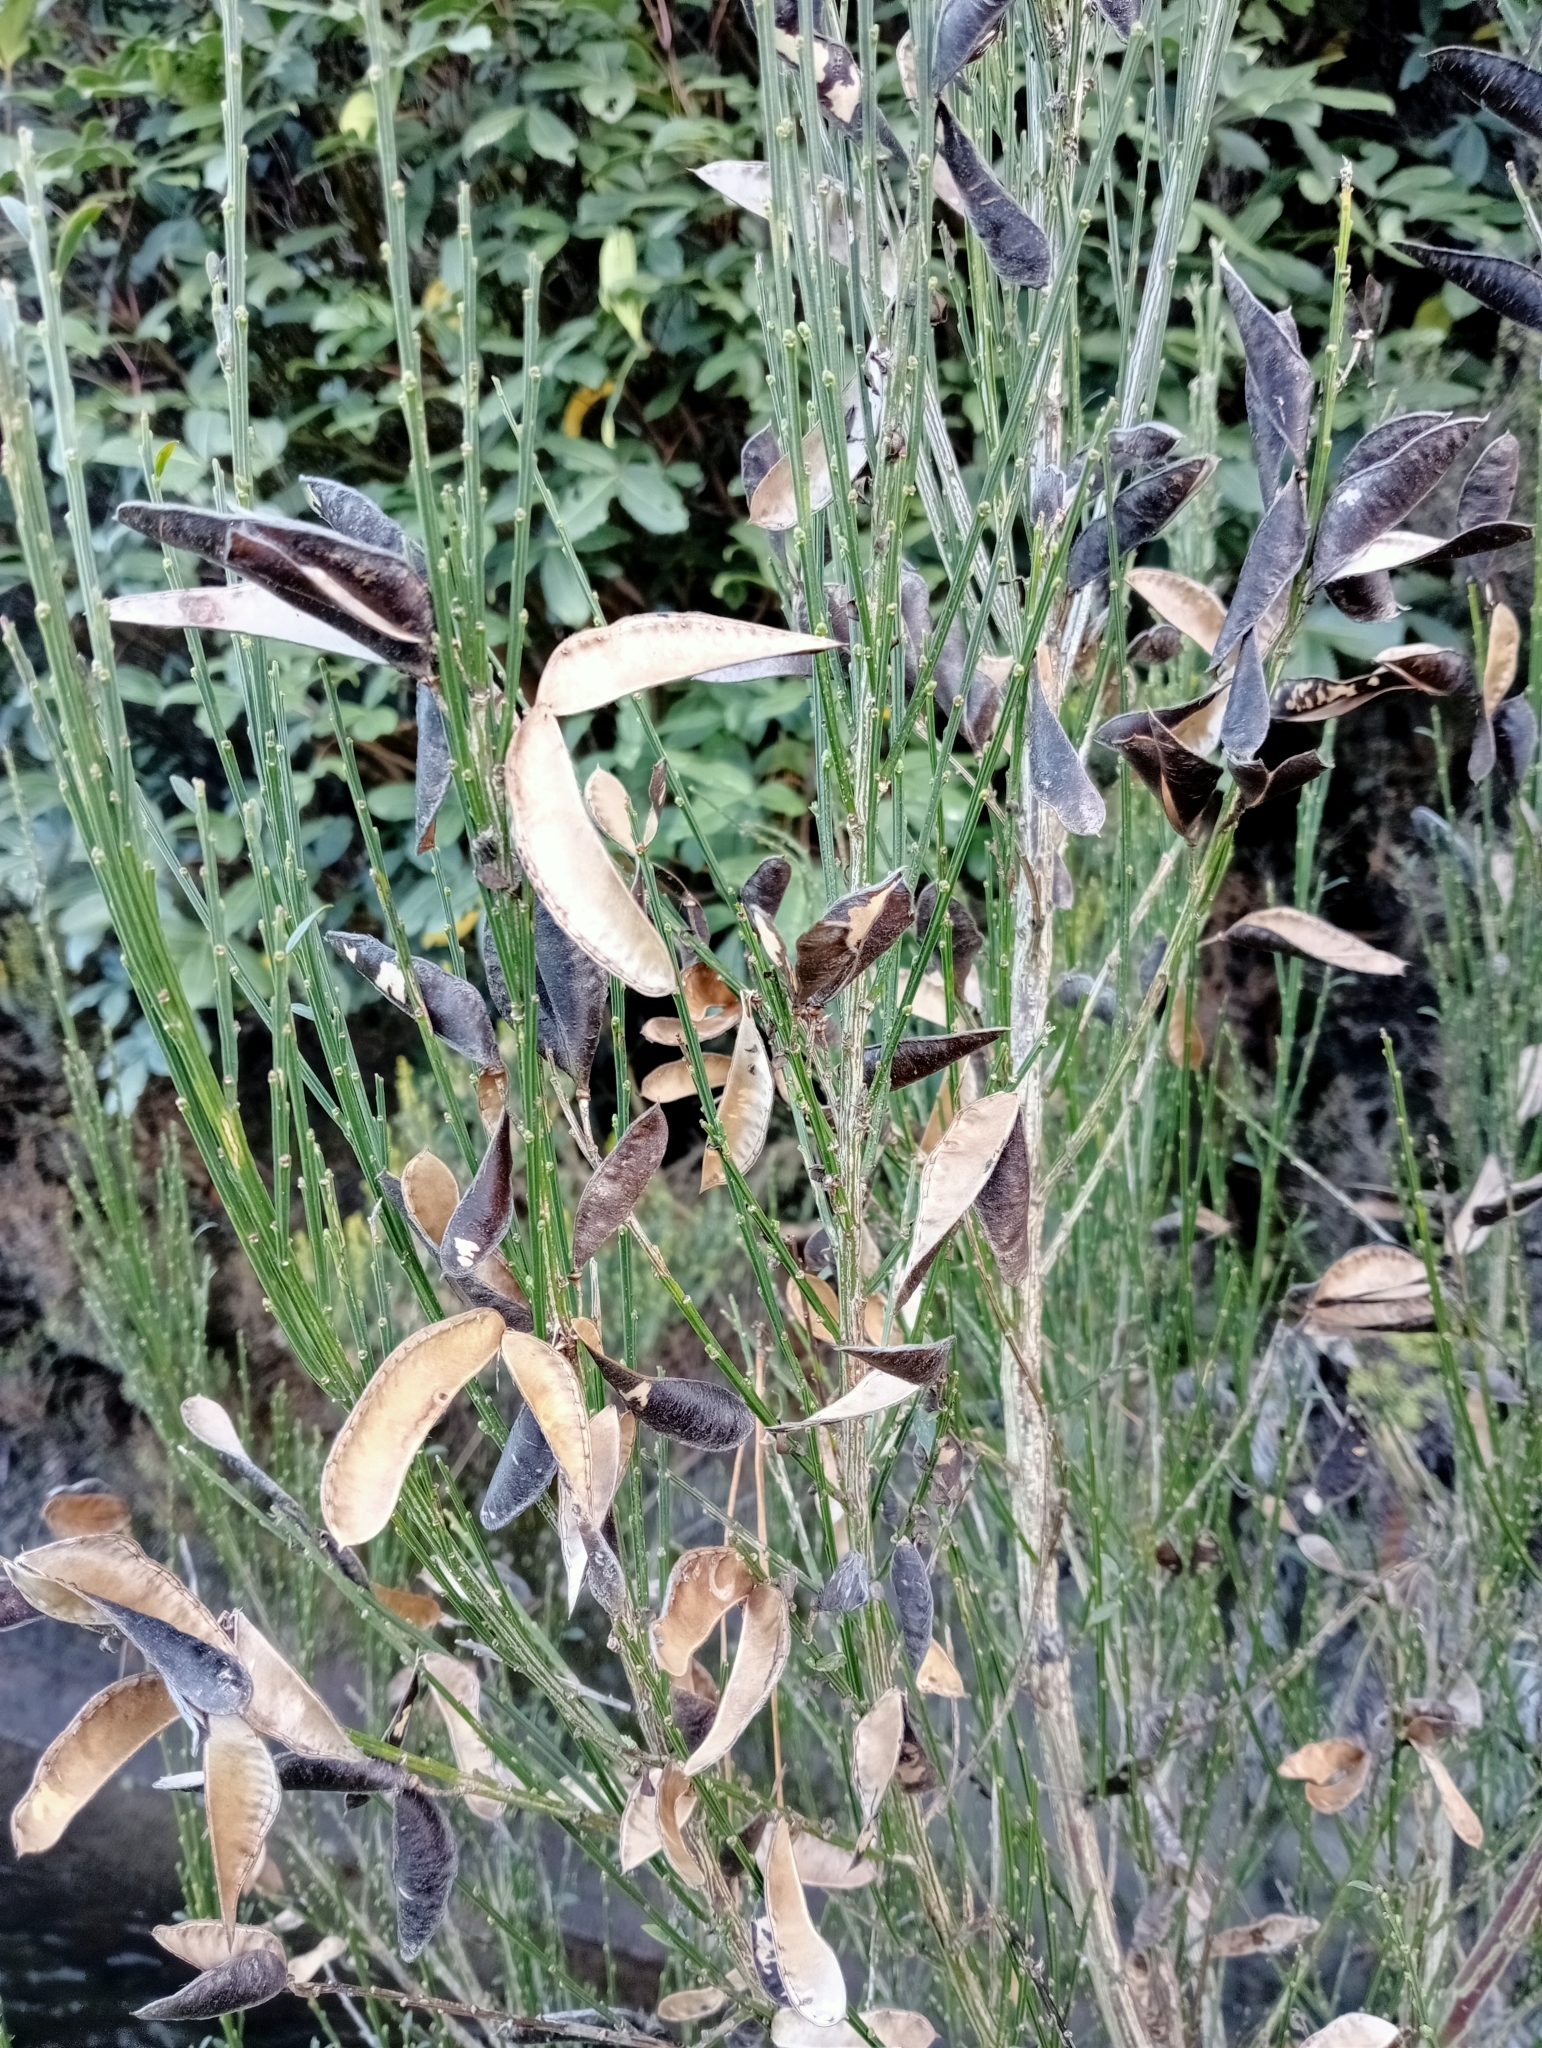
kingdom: Plantae
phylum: Tracheophyta
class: Magnoliopsida
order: Fabales
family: Fabaceae
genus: Cytisus
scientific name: Cytisus scoparius
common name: Scotch broom
